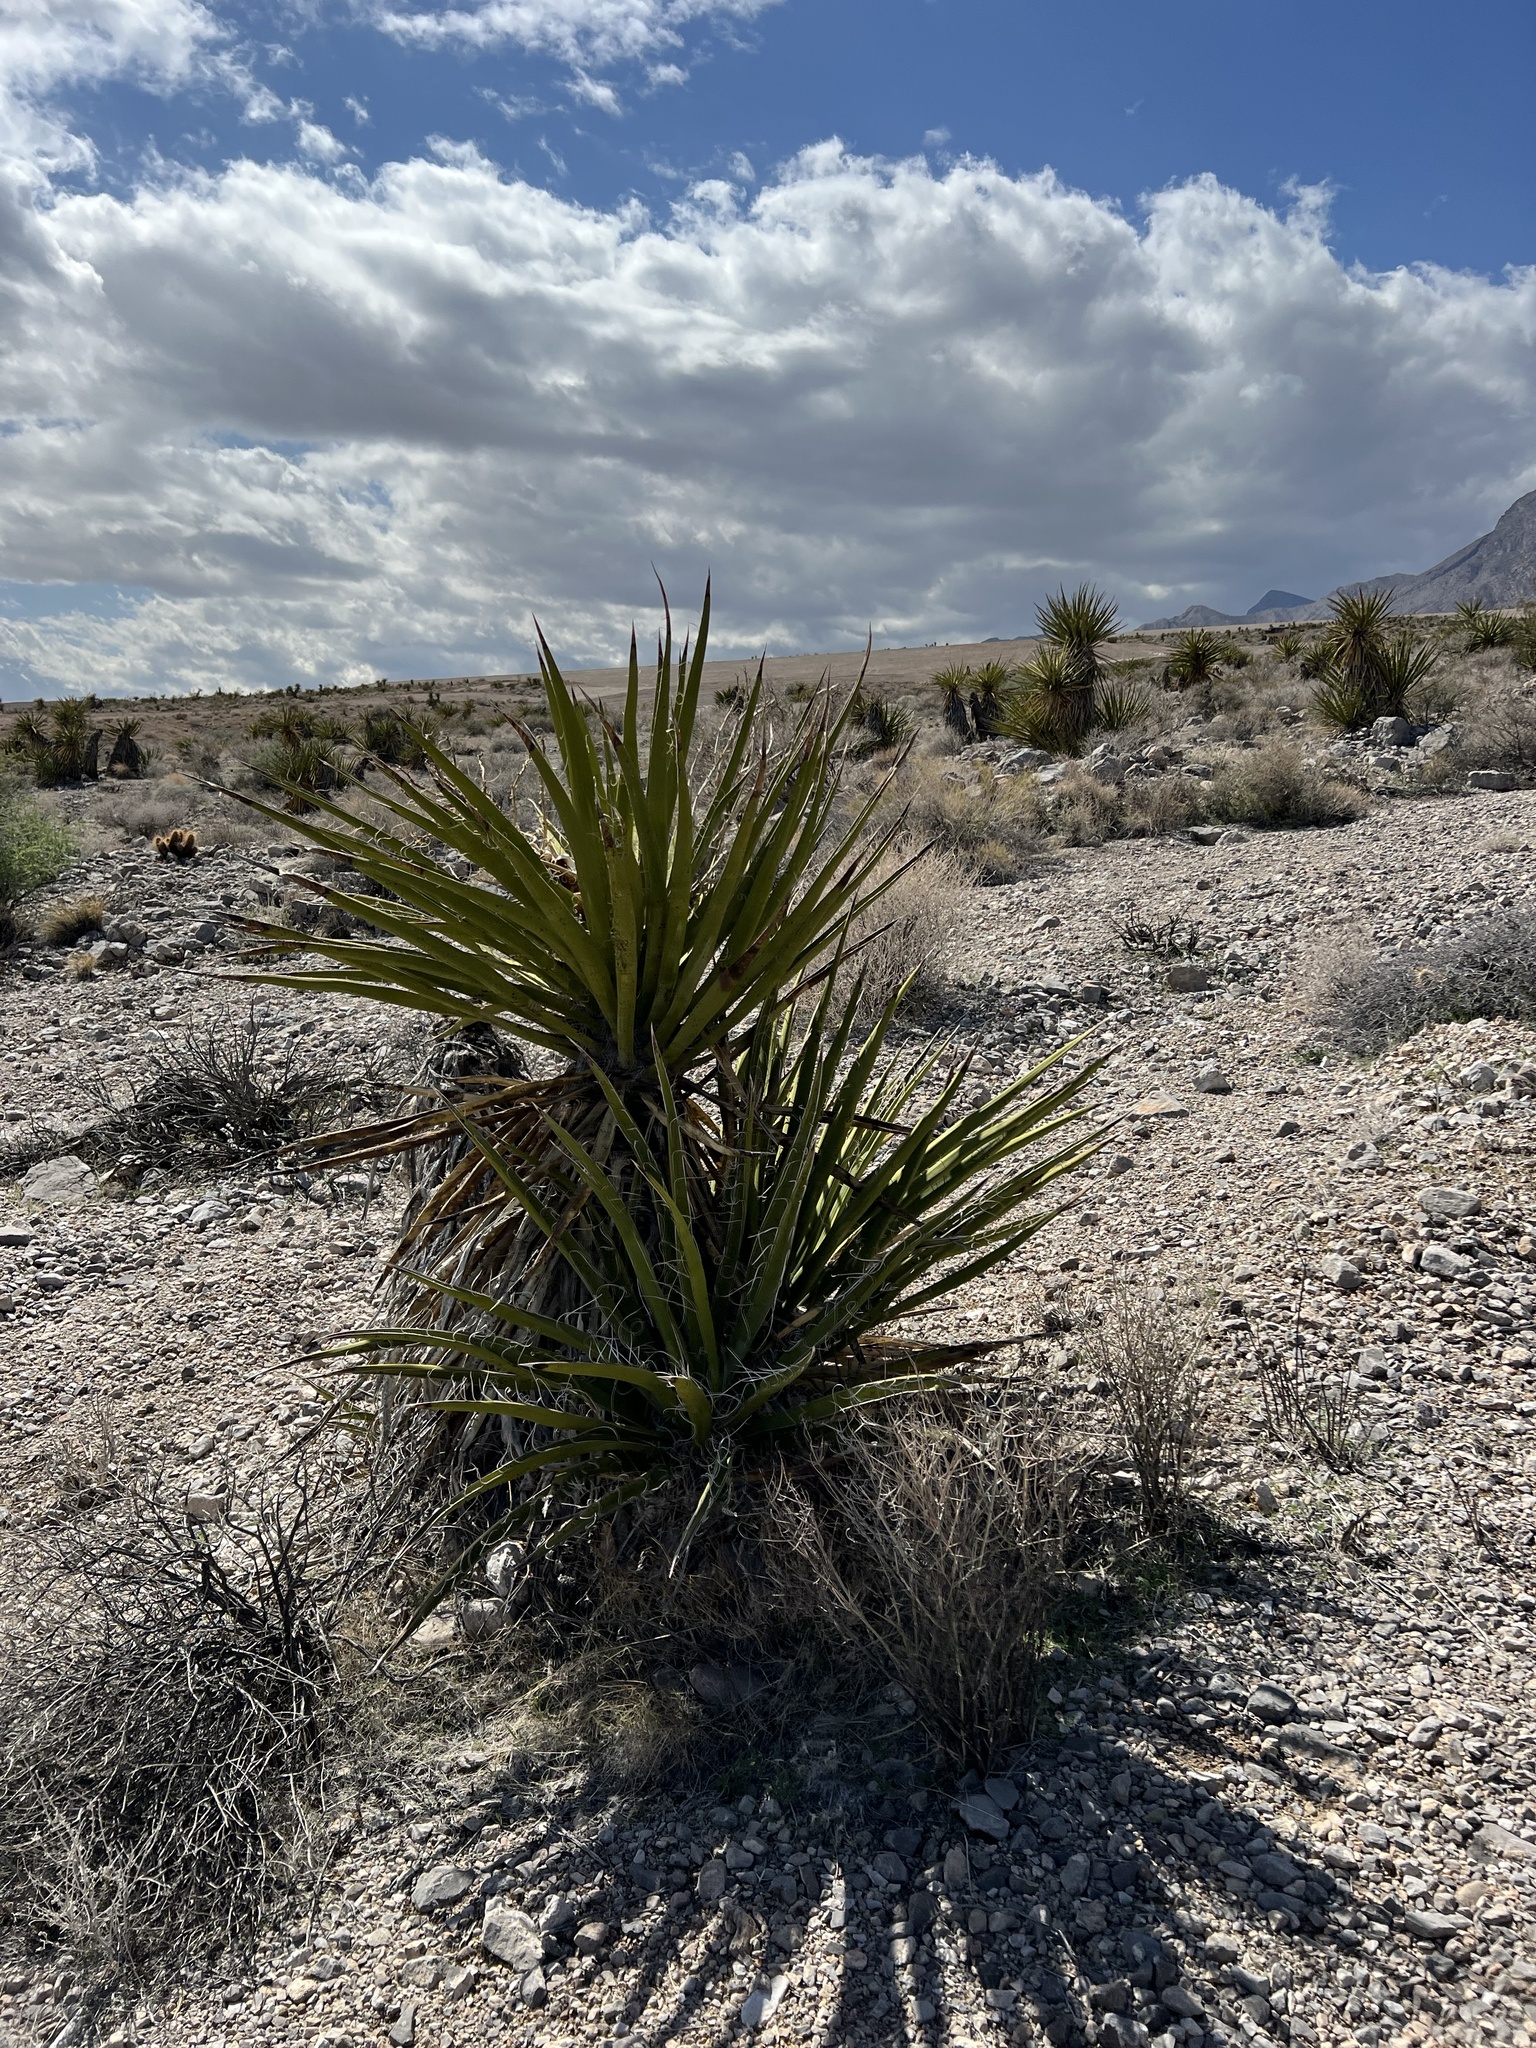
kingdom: Plantae
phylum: Tracheophyta
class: Liliopsida
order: Asparagales
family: Asparagaceae
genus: Yucca
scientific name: Yucca schidigera
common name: Mojave yucca
